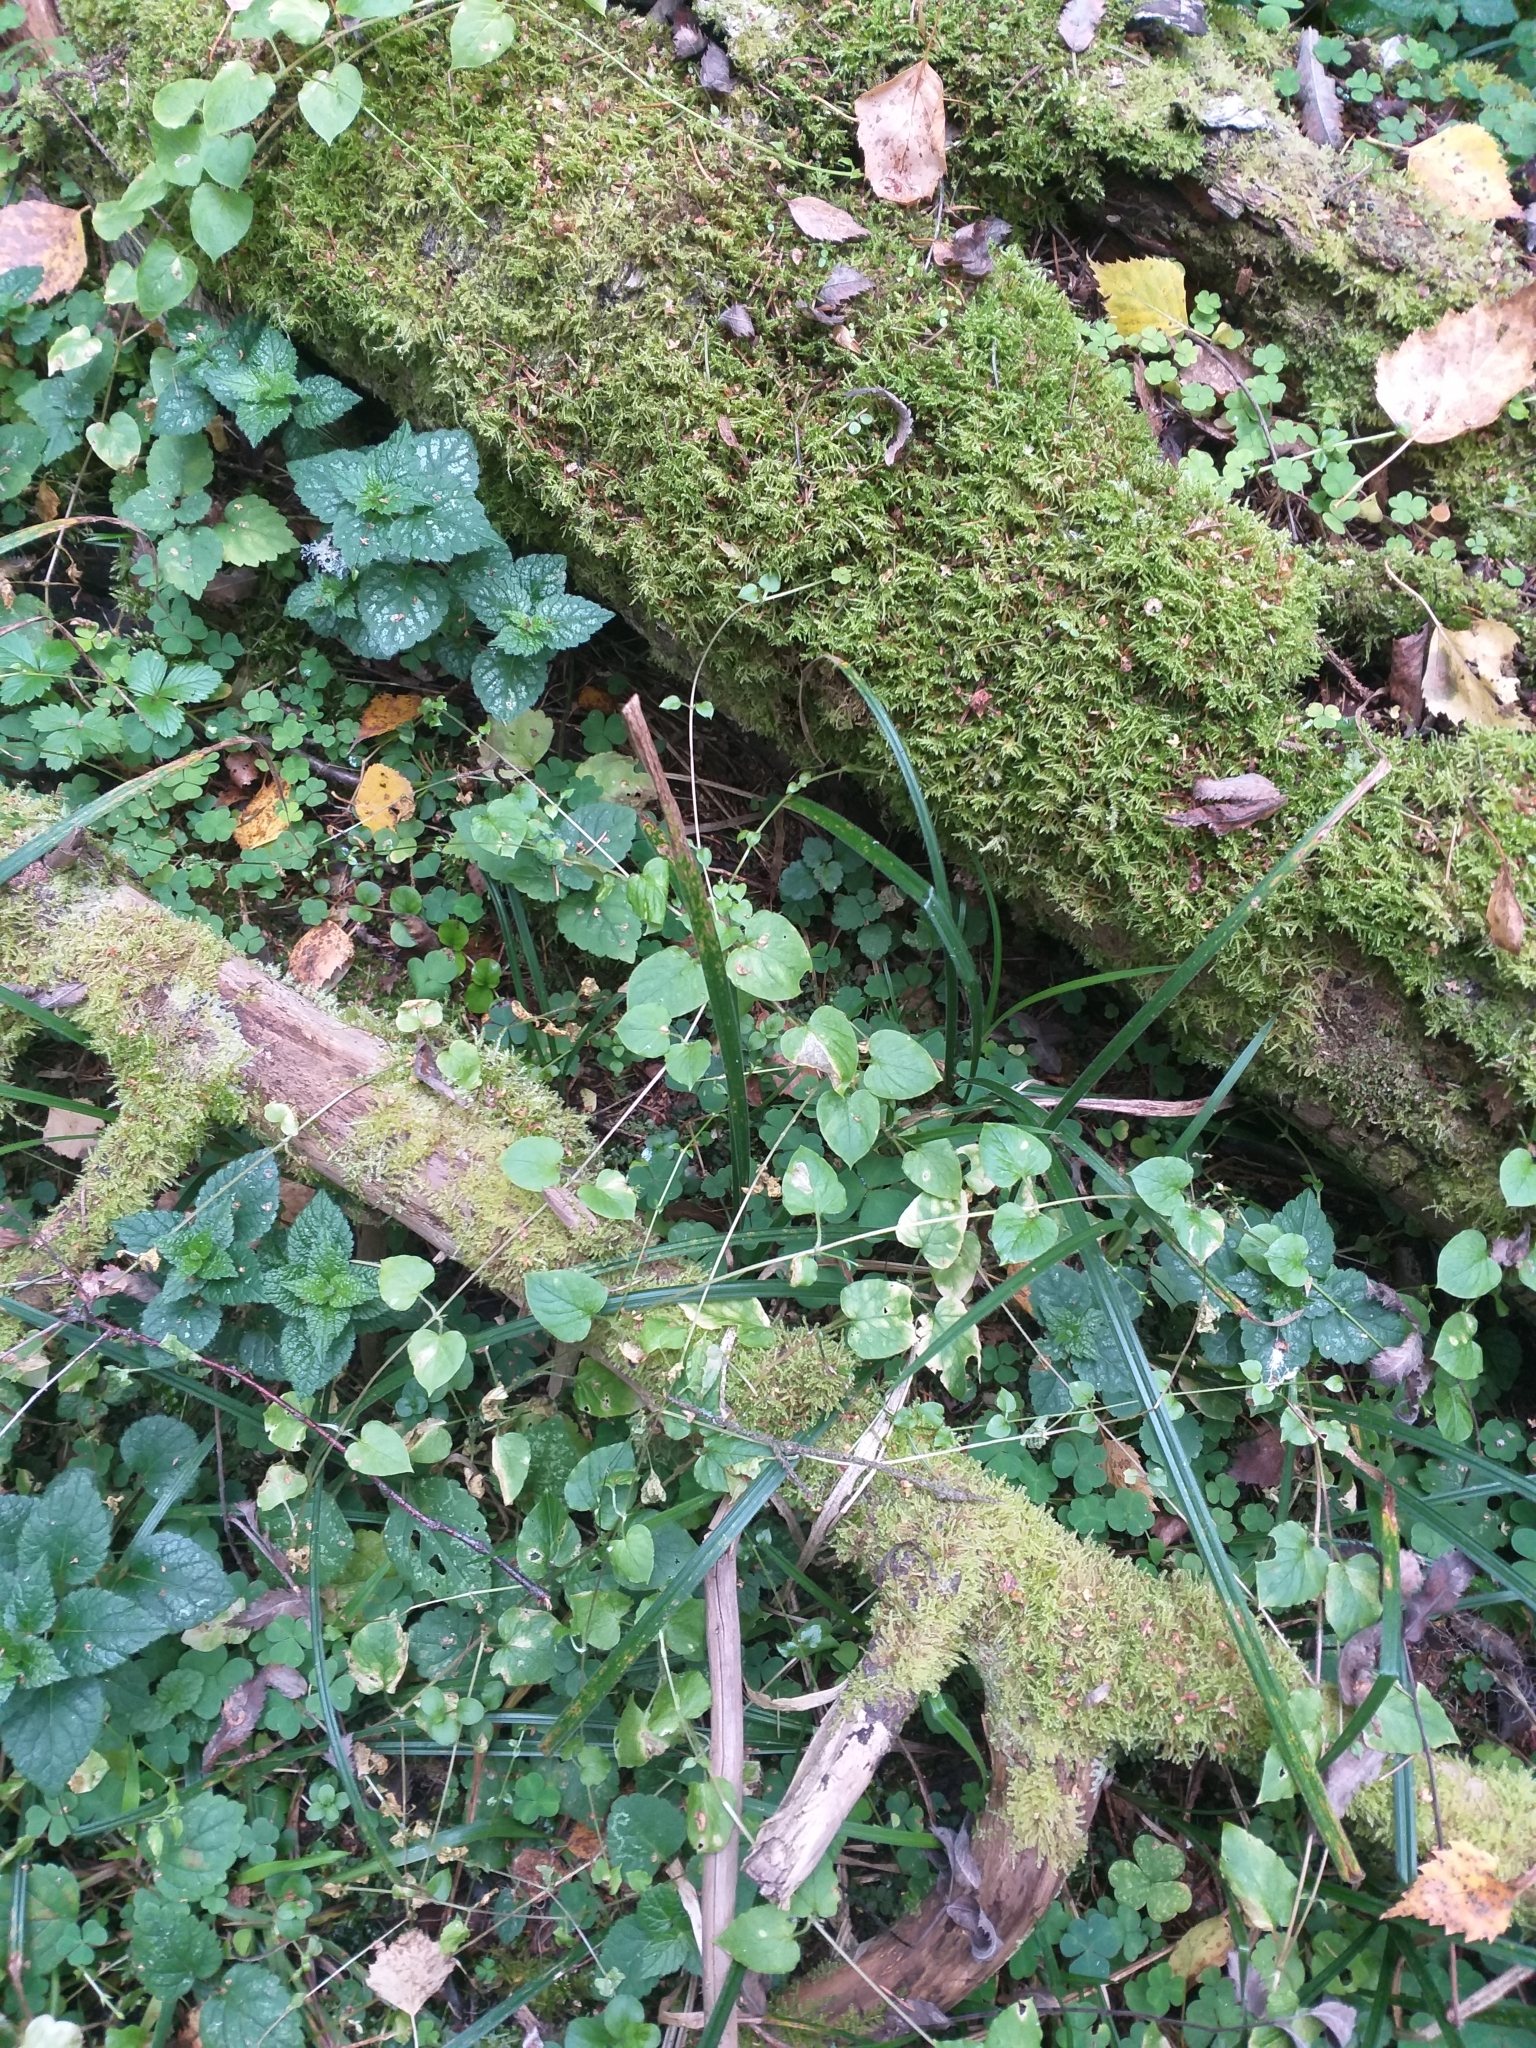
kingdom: Plantae
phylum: Tracheophyta
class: Magnoliopsida
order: Caryophyllales
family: Caryophyllaceae
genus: Stellaria
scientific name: Stellaria nemorum
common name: Wood stitchwort
